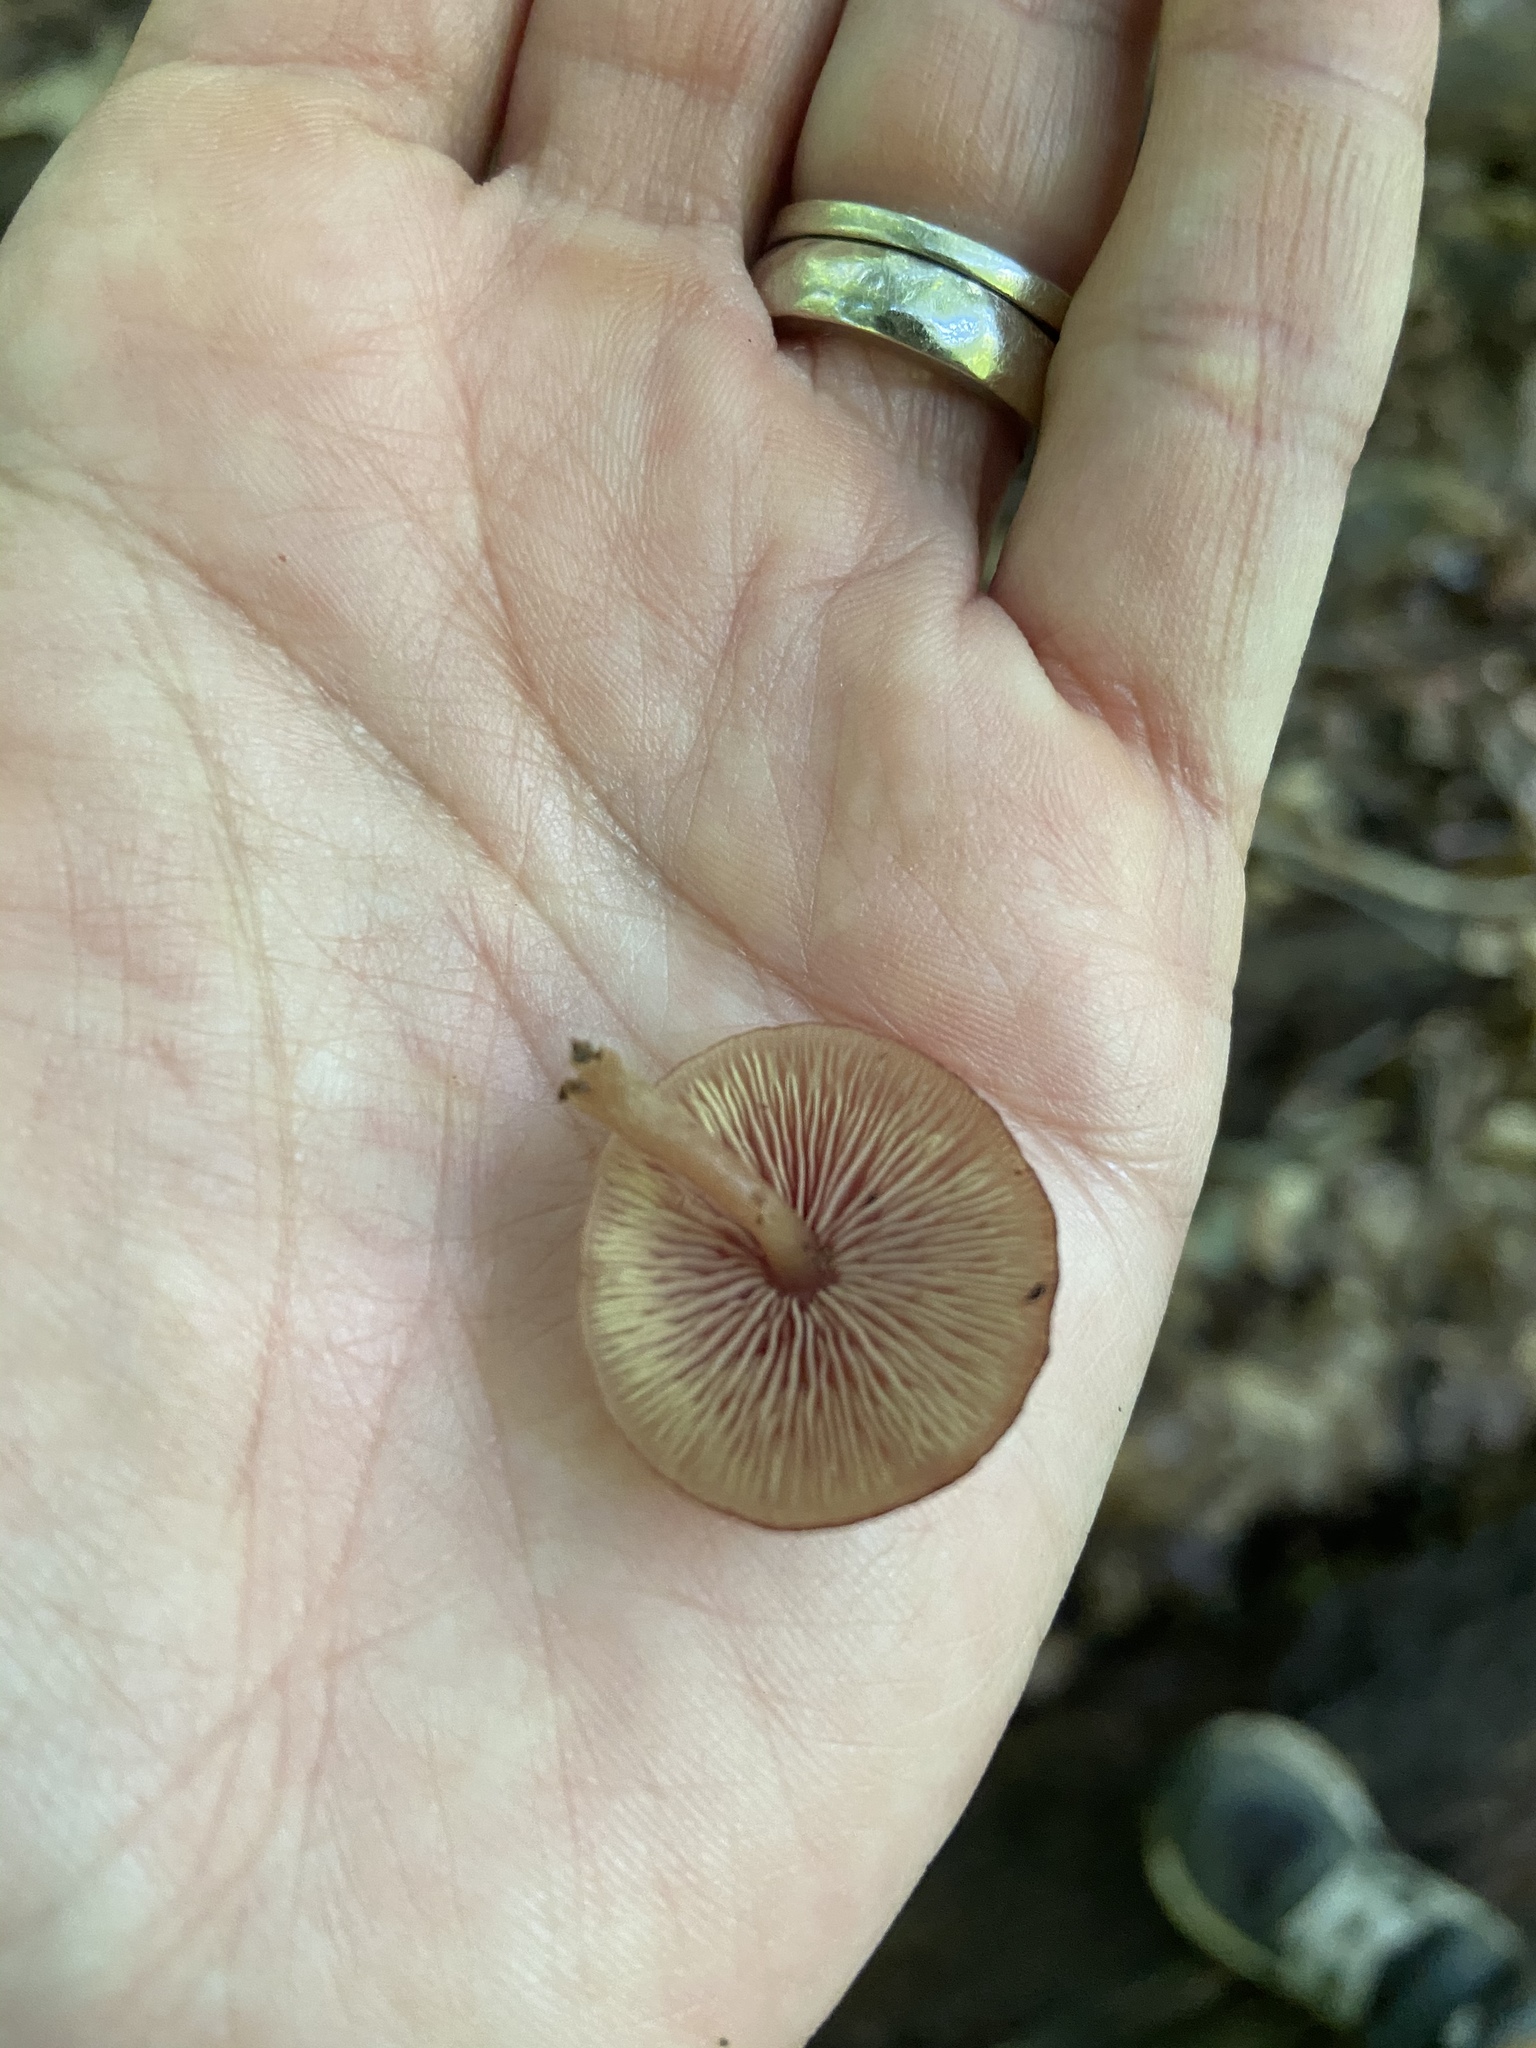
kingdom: Fungi
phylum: Basidiomycota
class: Agaricomycetes
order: Agaricales
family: Callistosporiaceae
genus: Callistosporium
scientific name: Callistosporium purpureomarginatum
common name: Purple-edged lute
